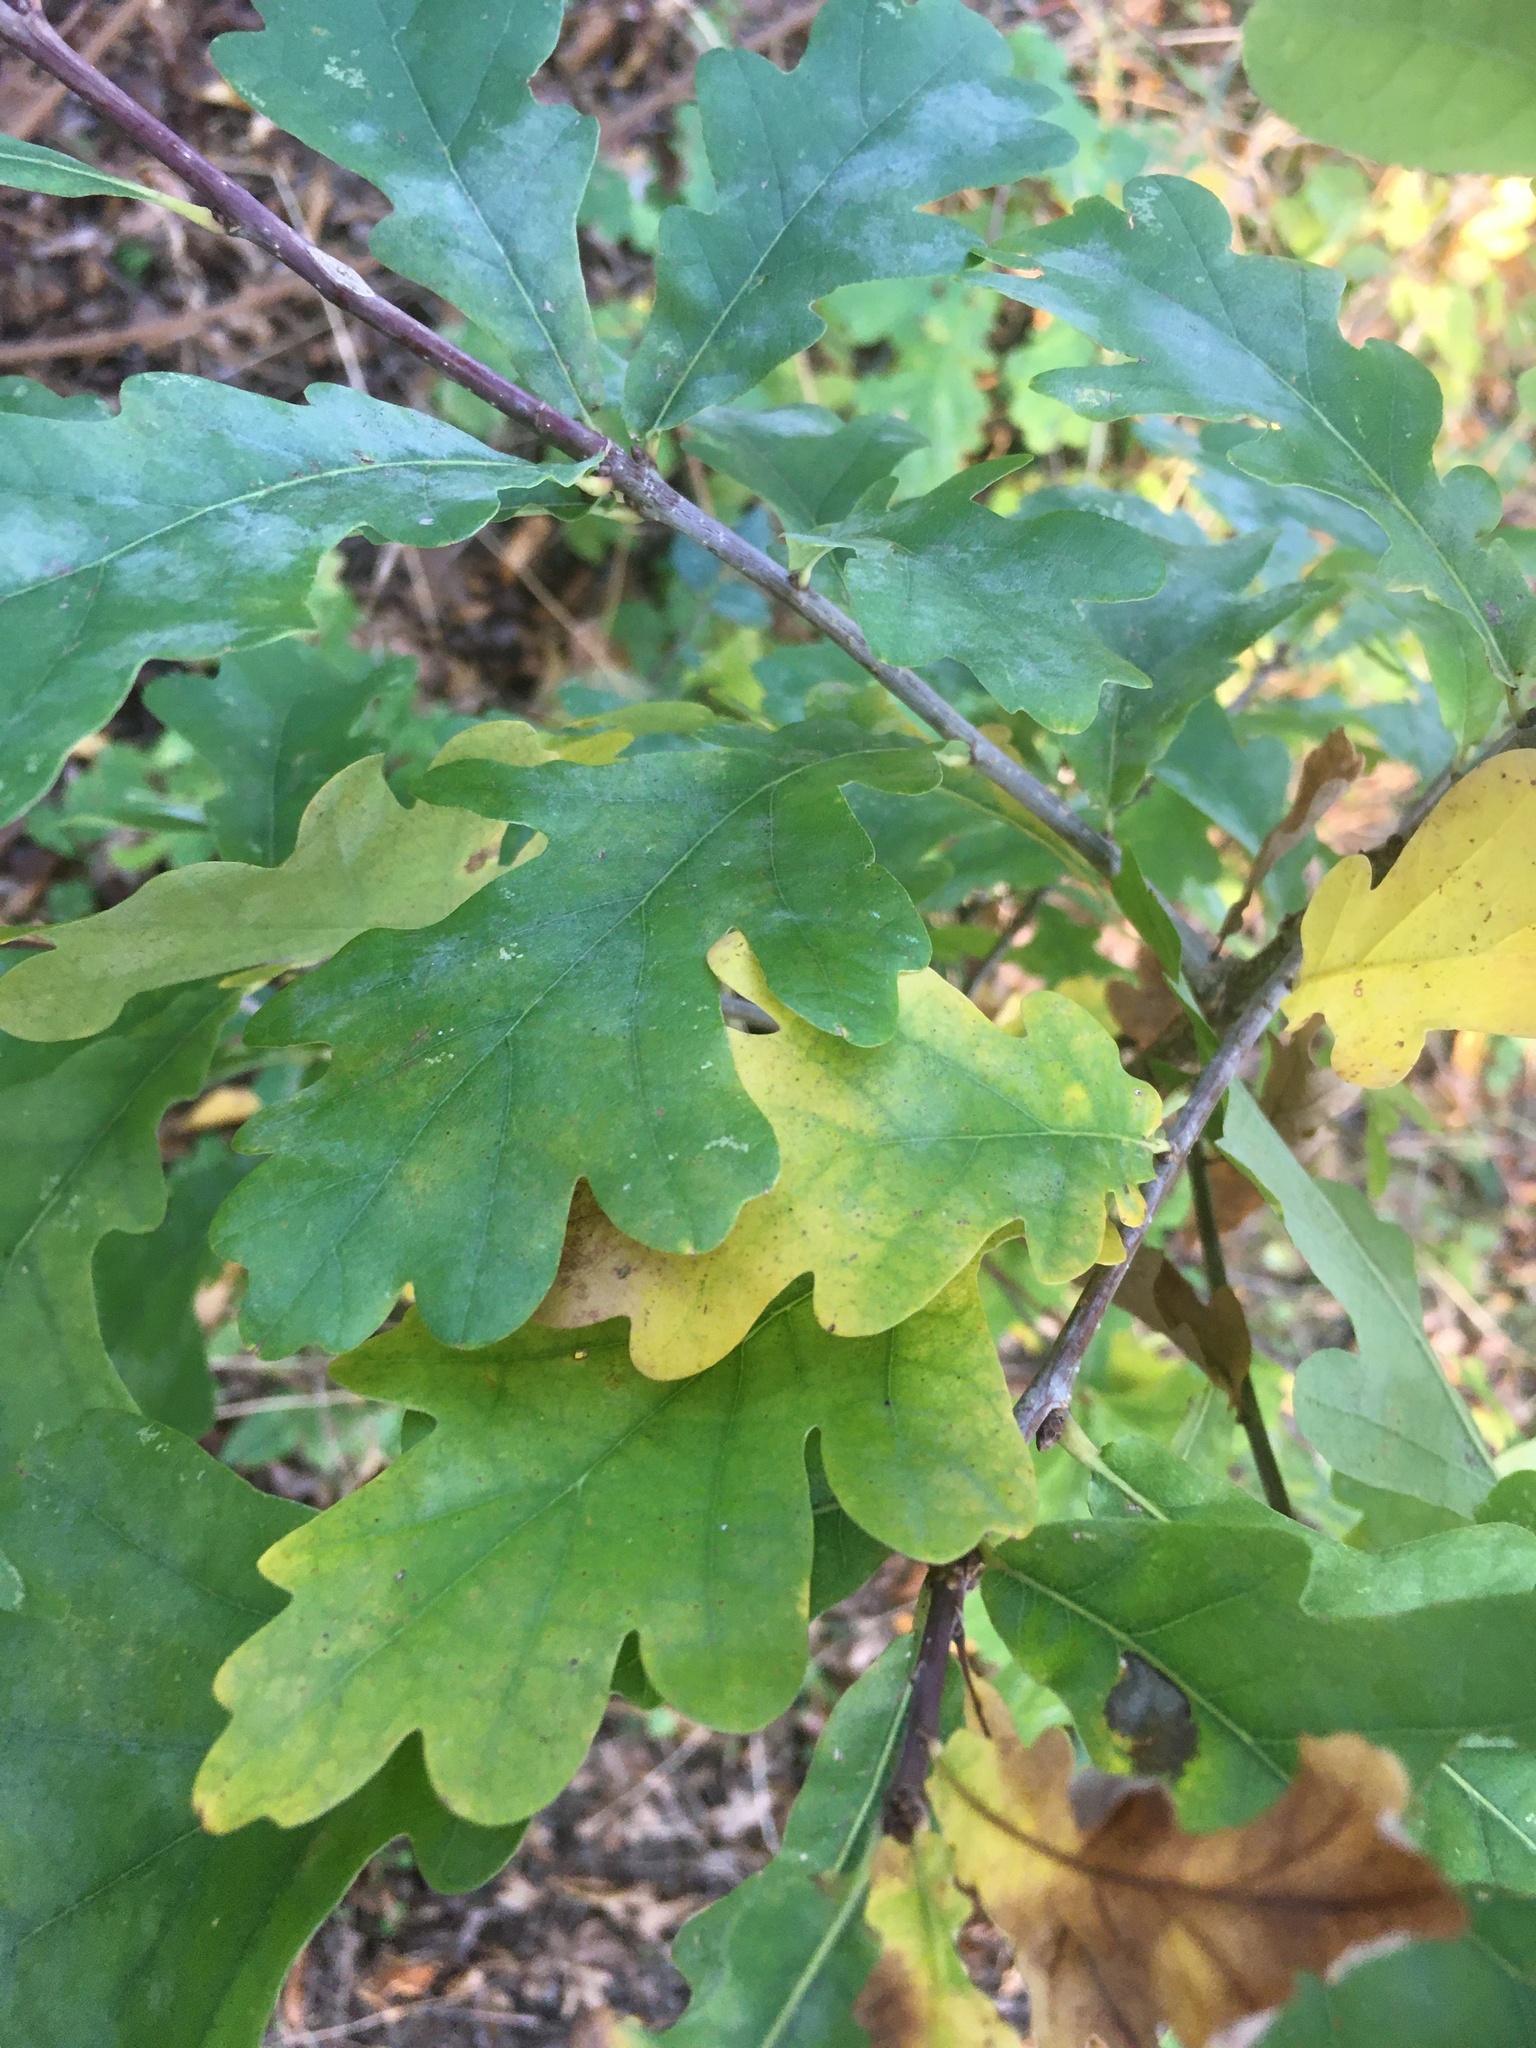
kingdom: Plantae
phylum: Tracheophyta
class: Magnoliopsida
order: Fagales
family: Fagaceae
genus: Quercus
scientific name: Quercus robur
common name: Pedunculate oak
